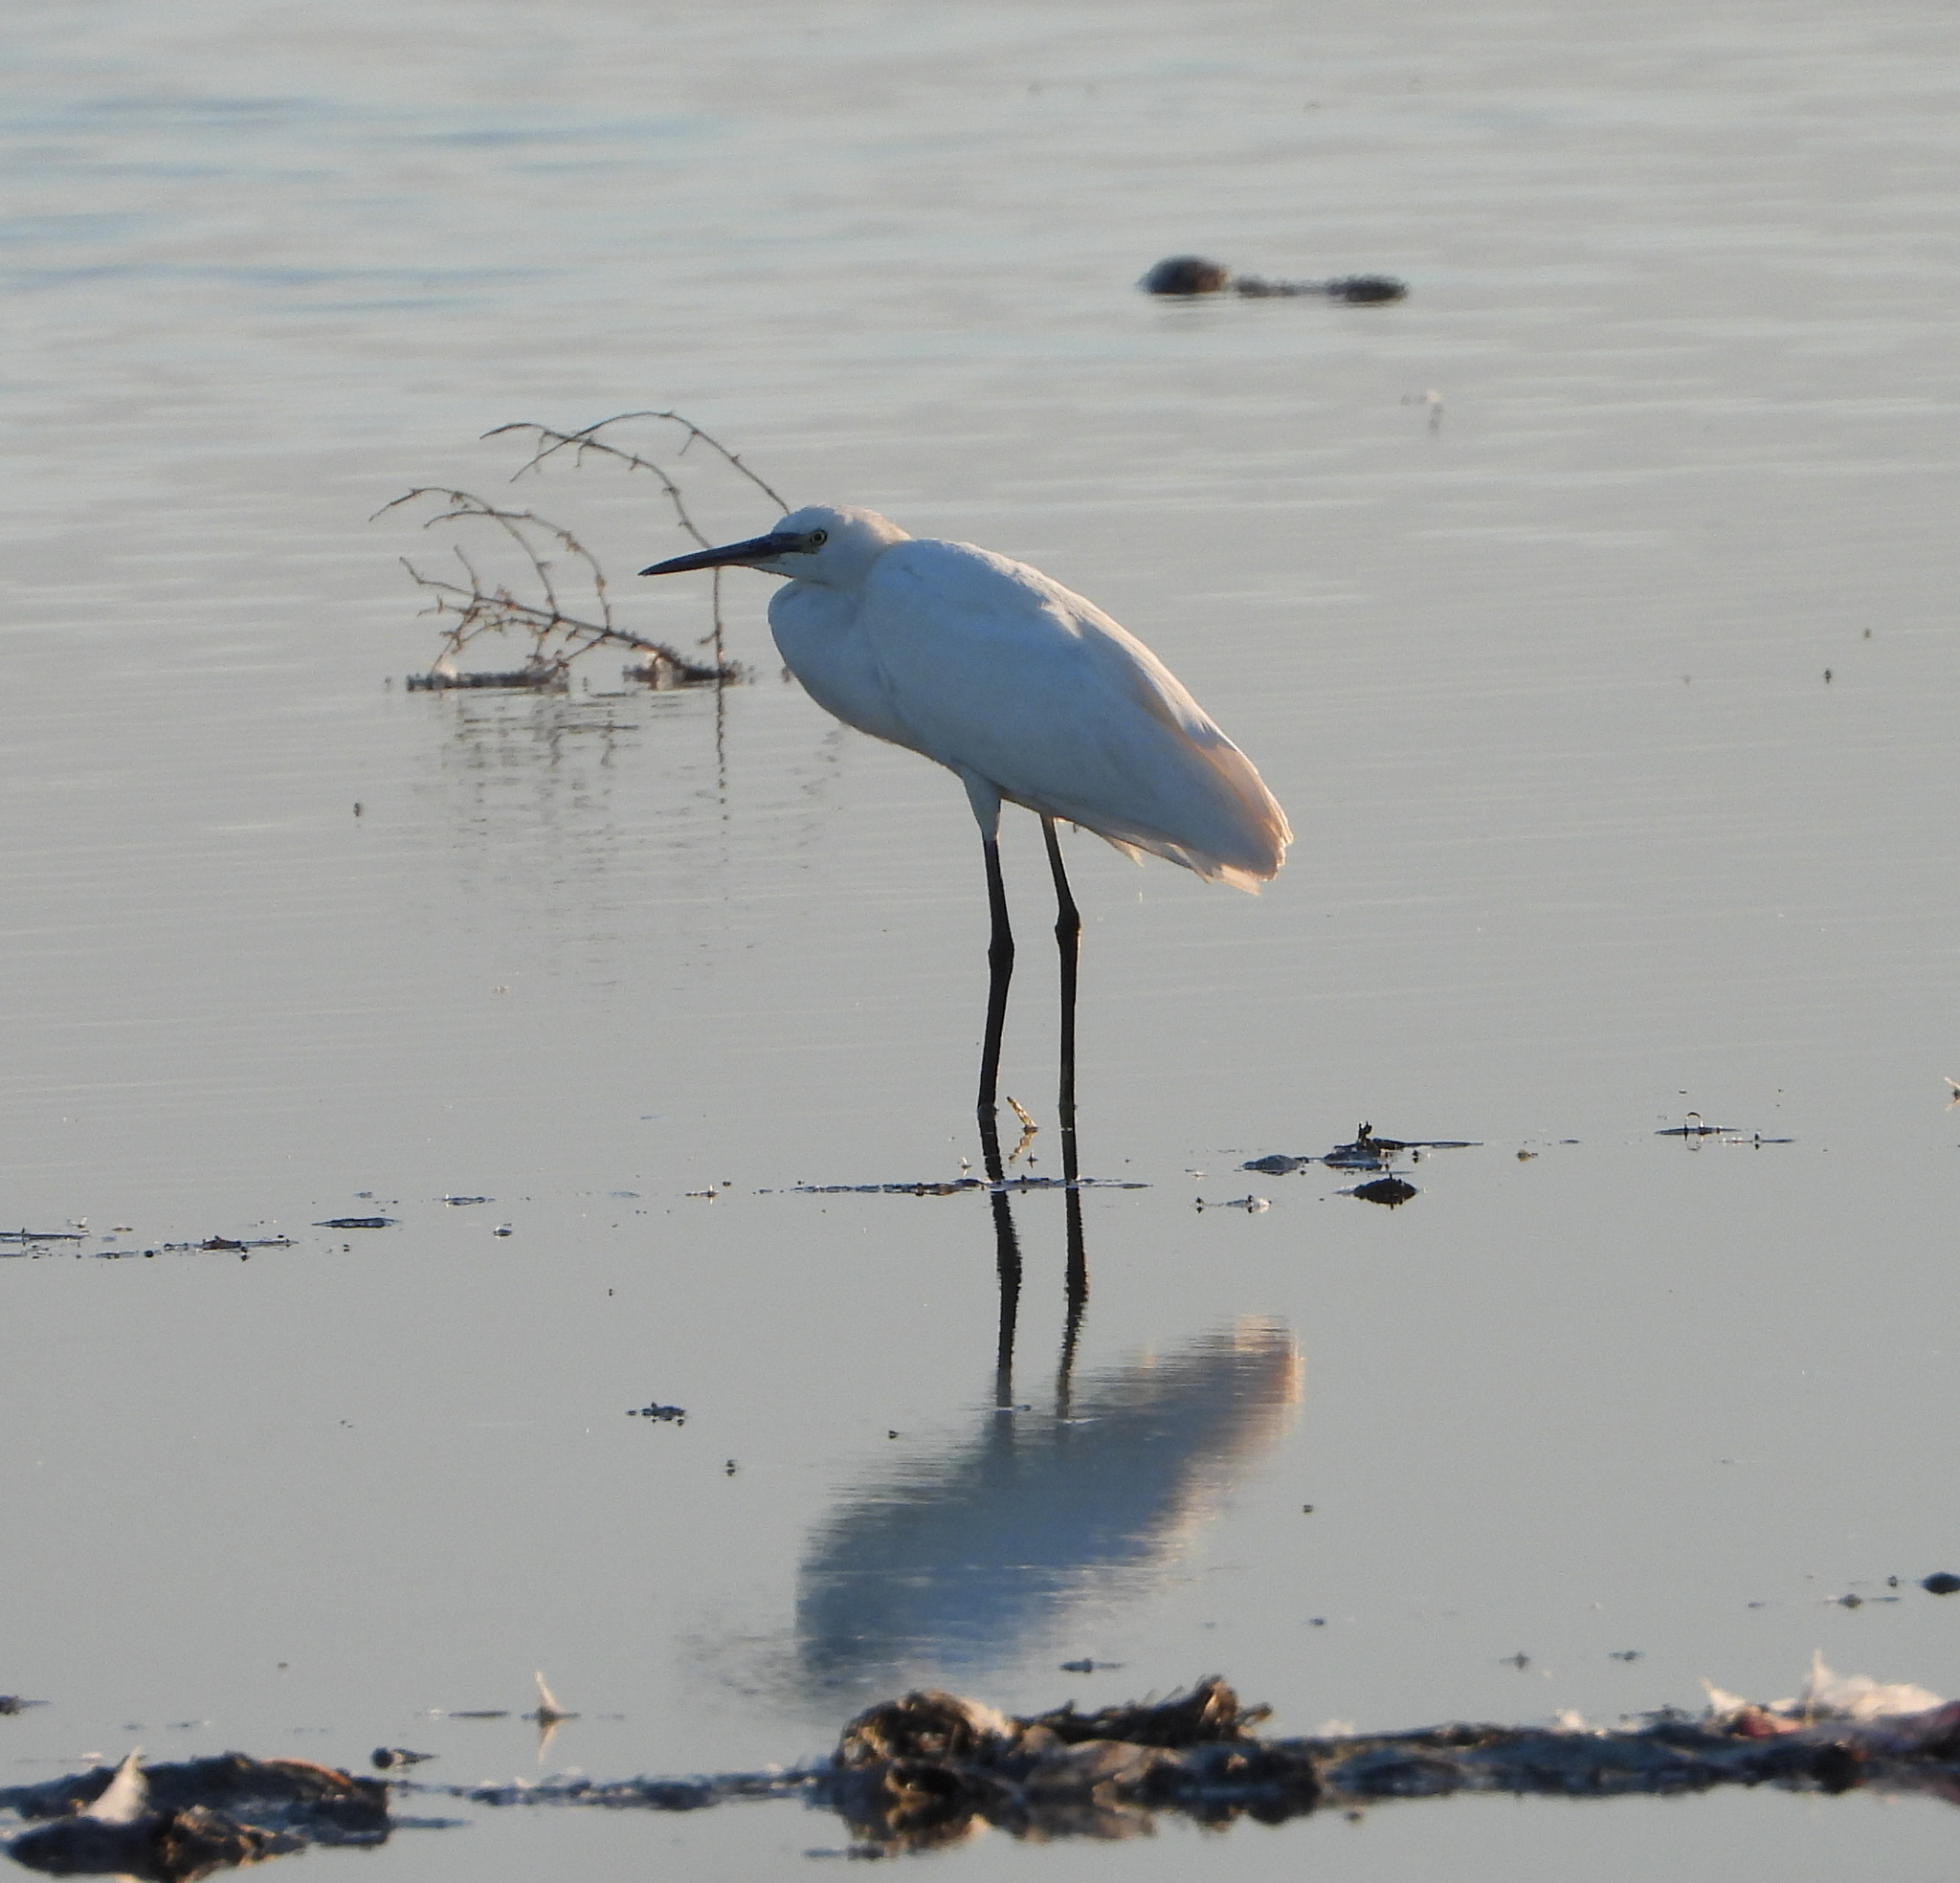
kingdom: Animalia
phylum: Chordata
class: Aves
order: Pelecaniformes
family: Ardeidae
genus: Egretta
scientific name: Egretta garzetta
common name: Little egret
